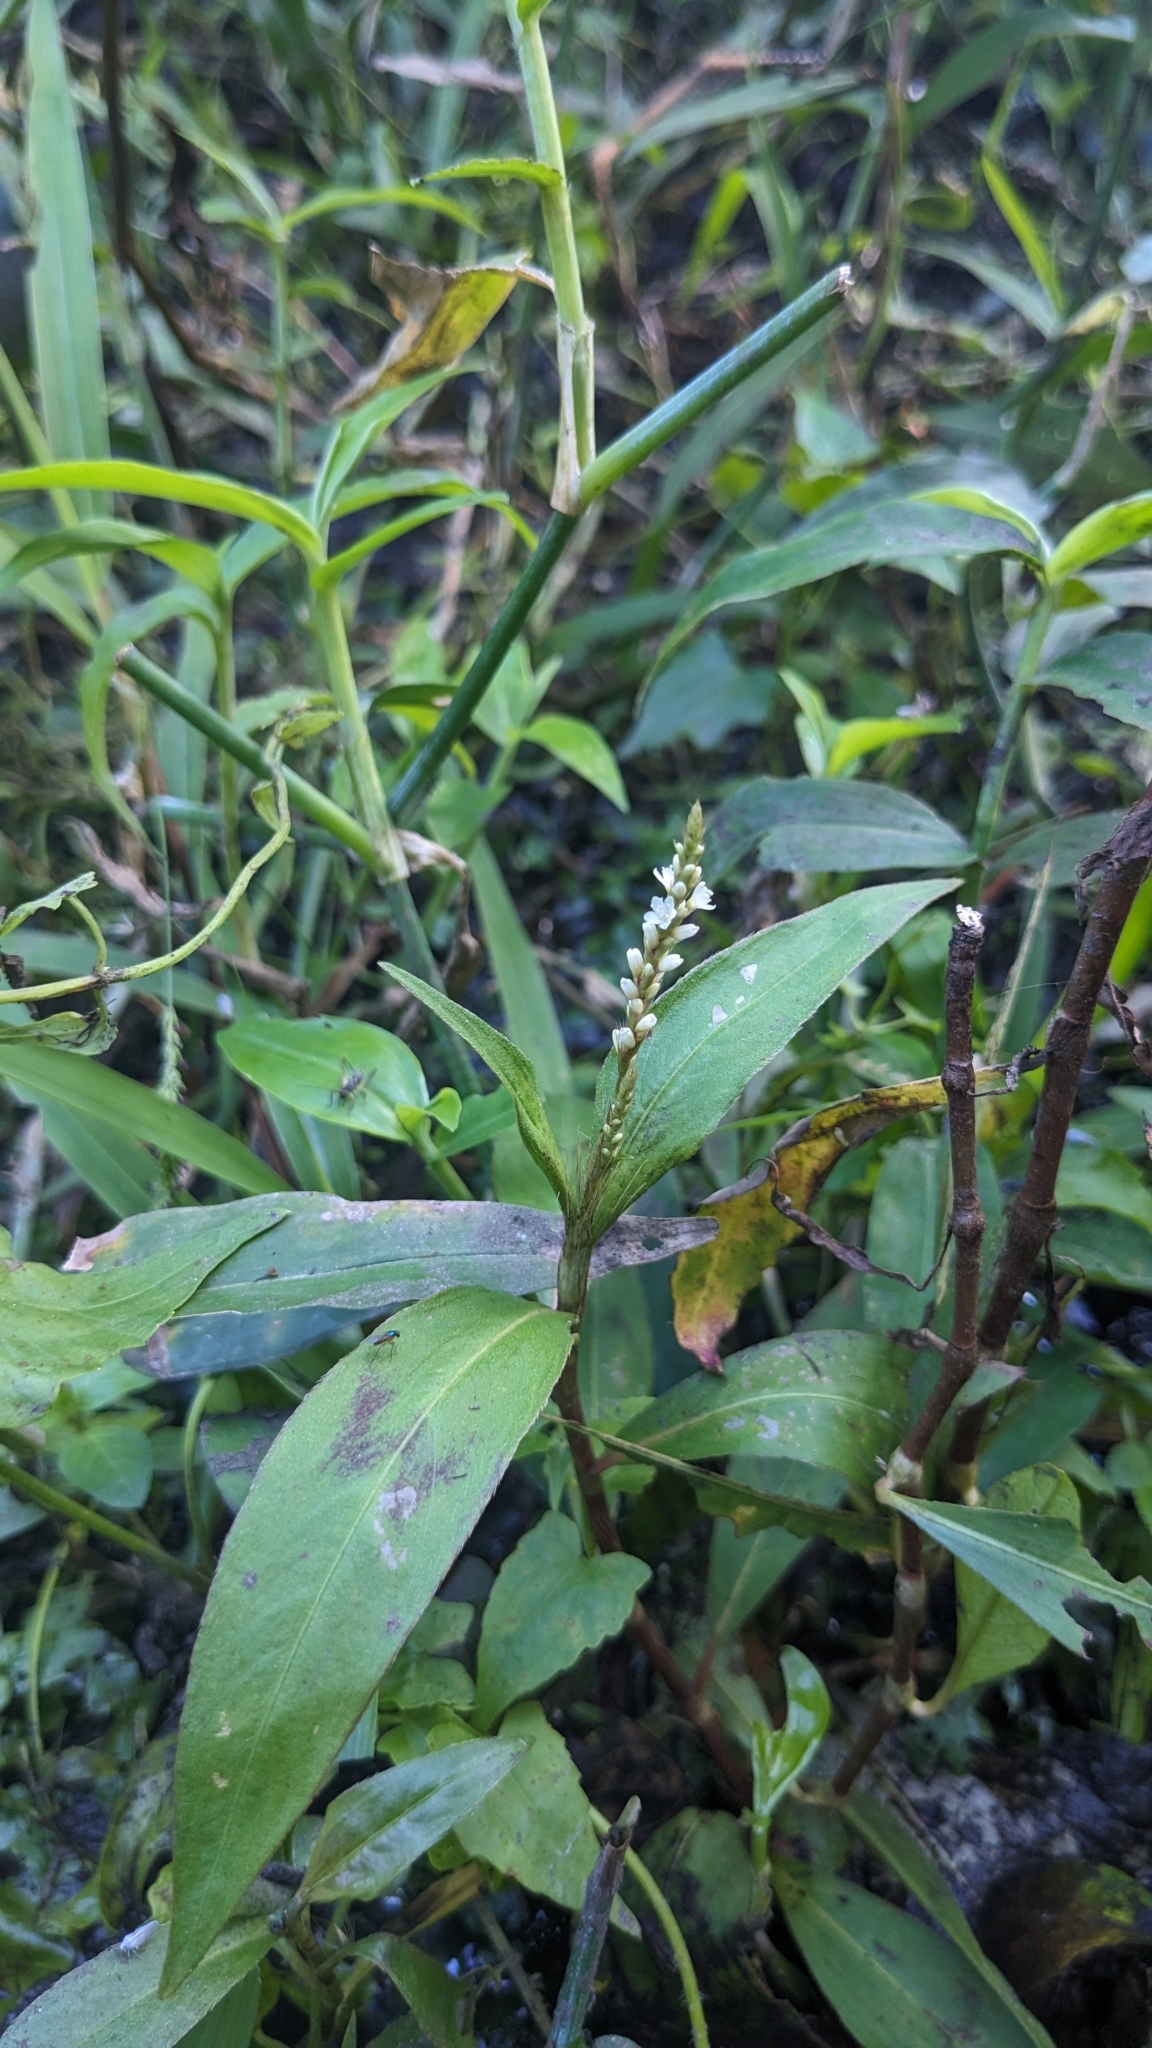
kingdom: Plantae
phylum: Tracheophyta
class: Magnoliopsida
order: Caryophyllales
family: Polygonaceae
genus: Persicaria
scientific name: Persicaria barbata
